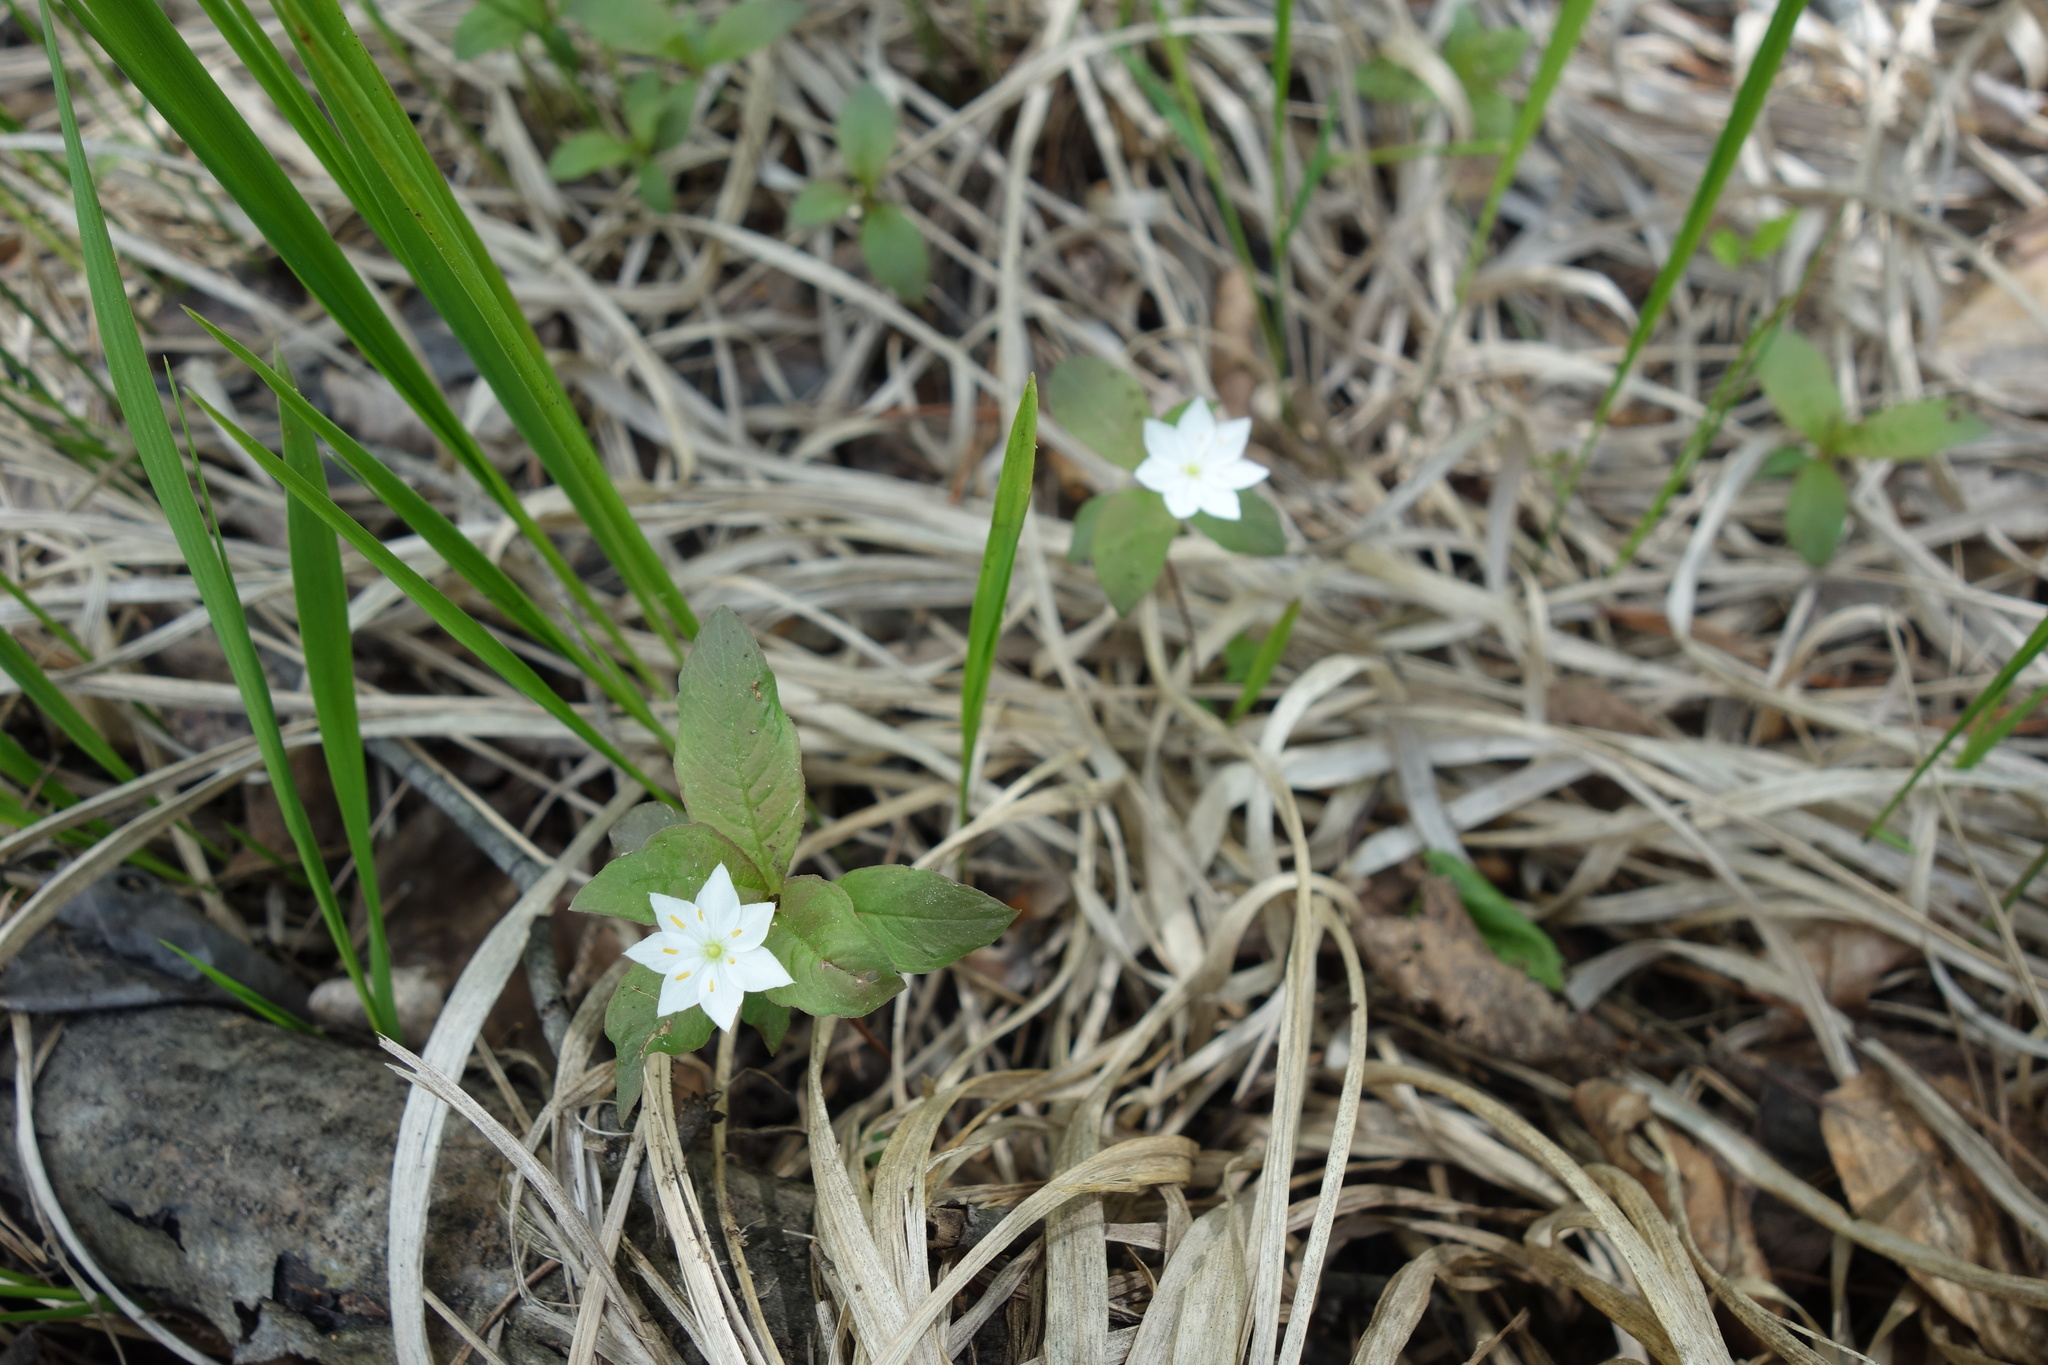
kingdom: Plantae
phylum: Tracheophyta
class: Magnoliopsida
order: Ericales
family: Primulaceae
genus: Lysimachia
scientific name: Lysimachia europaea
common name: Arctic starflower
